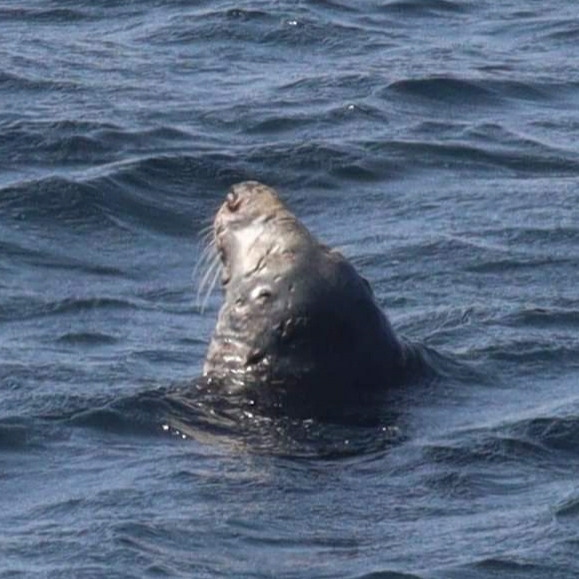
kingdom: Animalia
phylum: Chordata
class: Mammalia
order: Carnivora
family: Phocidae
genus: Halichoerus
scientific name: Halichoerus grypus
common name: Grey seal
